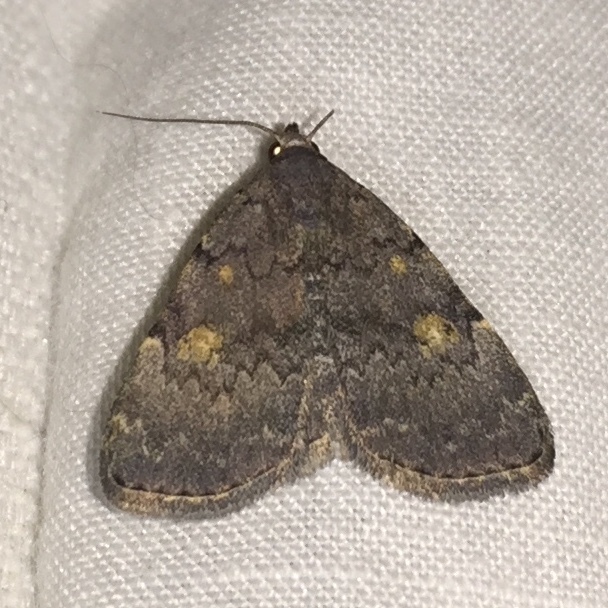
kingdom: Animalia
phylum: Arthropoda
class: Insecta
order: Lepidoptera
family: Erebidae
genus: Idia
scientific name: Idia aemula
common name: Common idia moth
